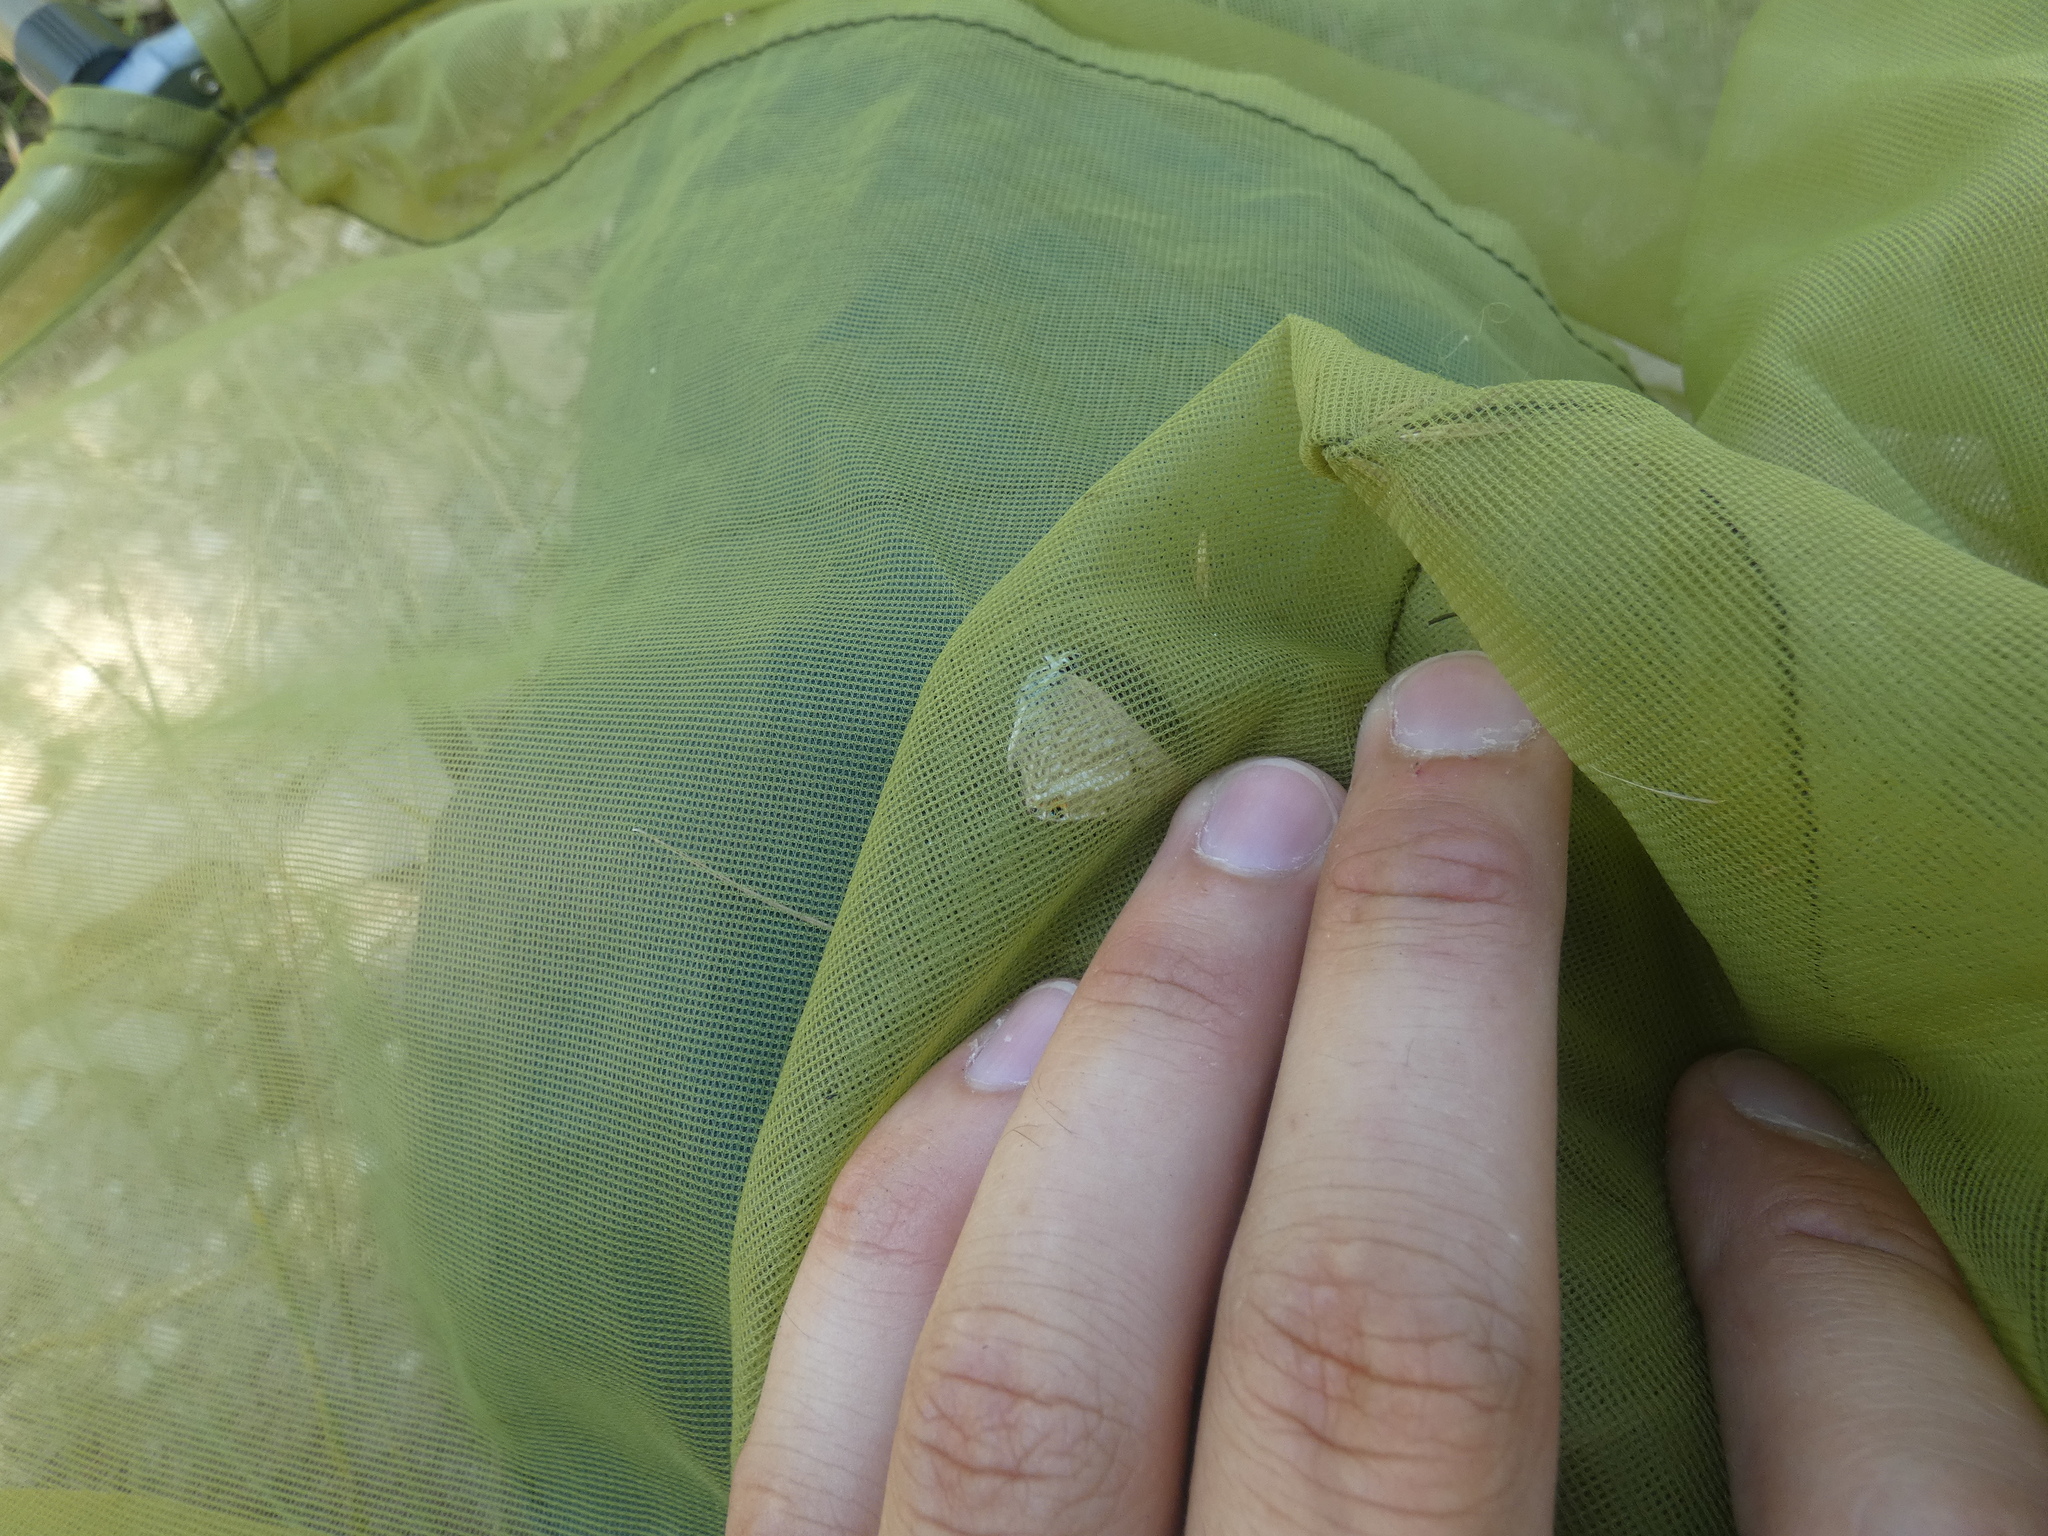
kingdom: Animalia
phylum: Arthropoda
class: Insecta
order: Lepidoptera
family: Lycaenidae
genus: Lampides
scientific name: Lampides boeticus
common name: Long-tailed blue
